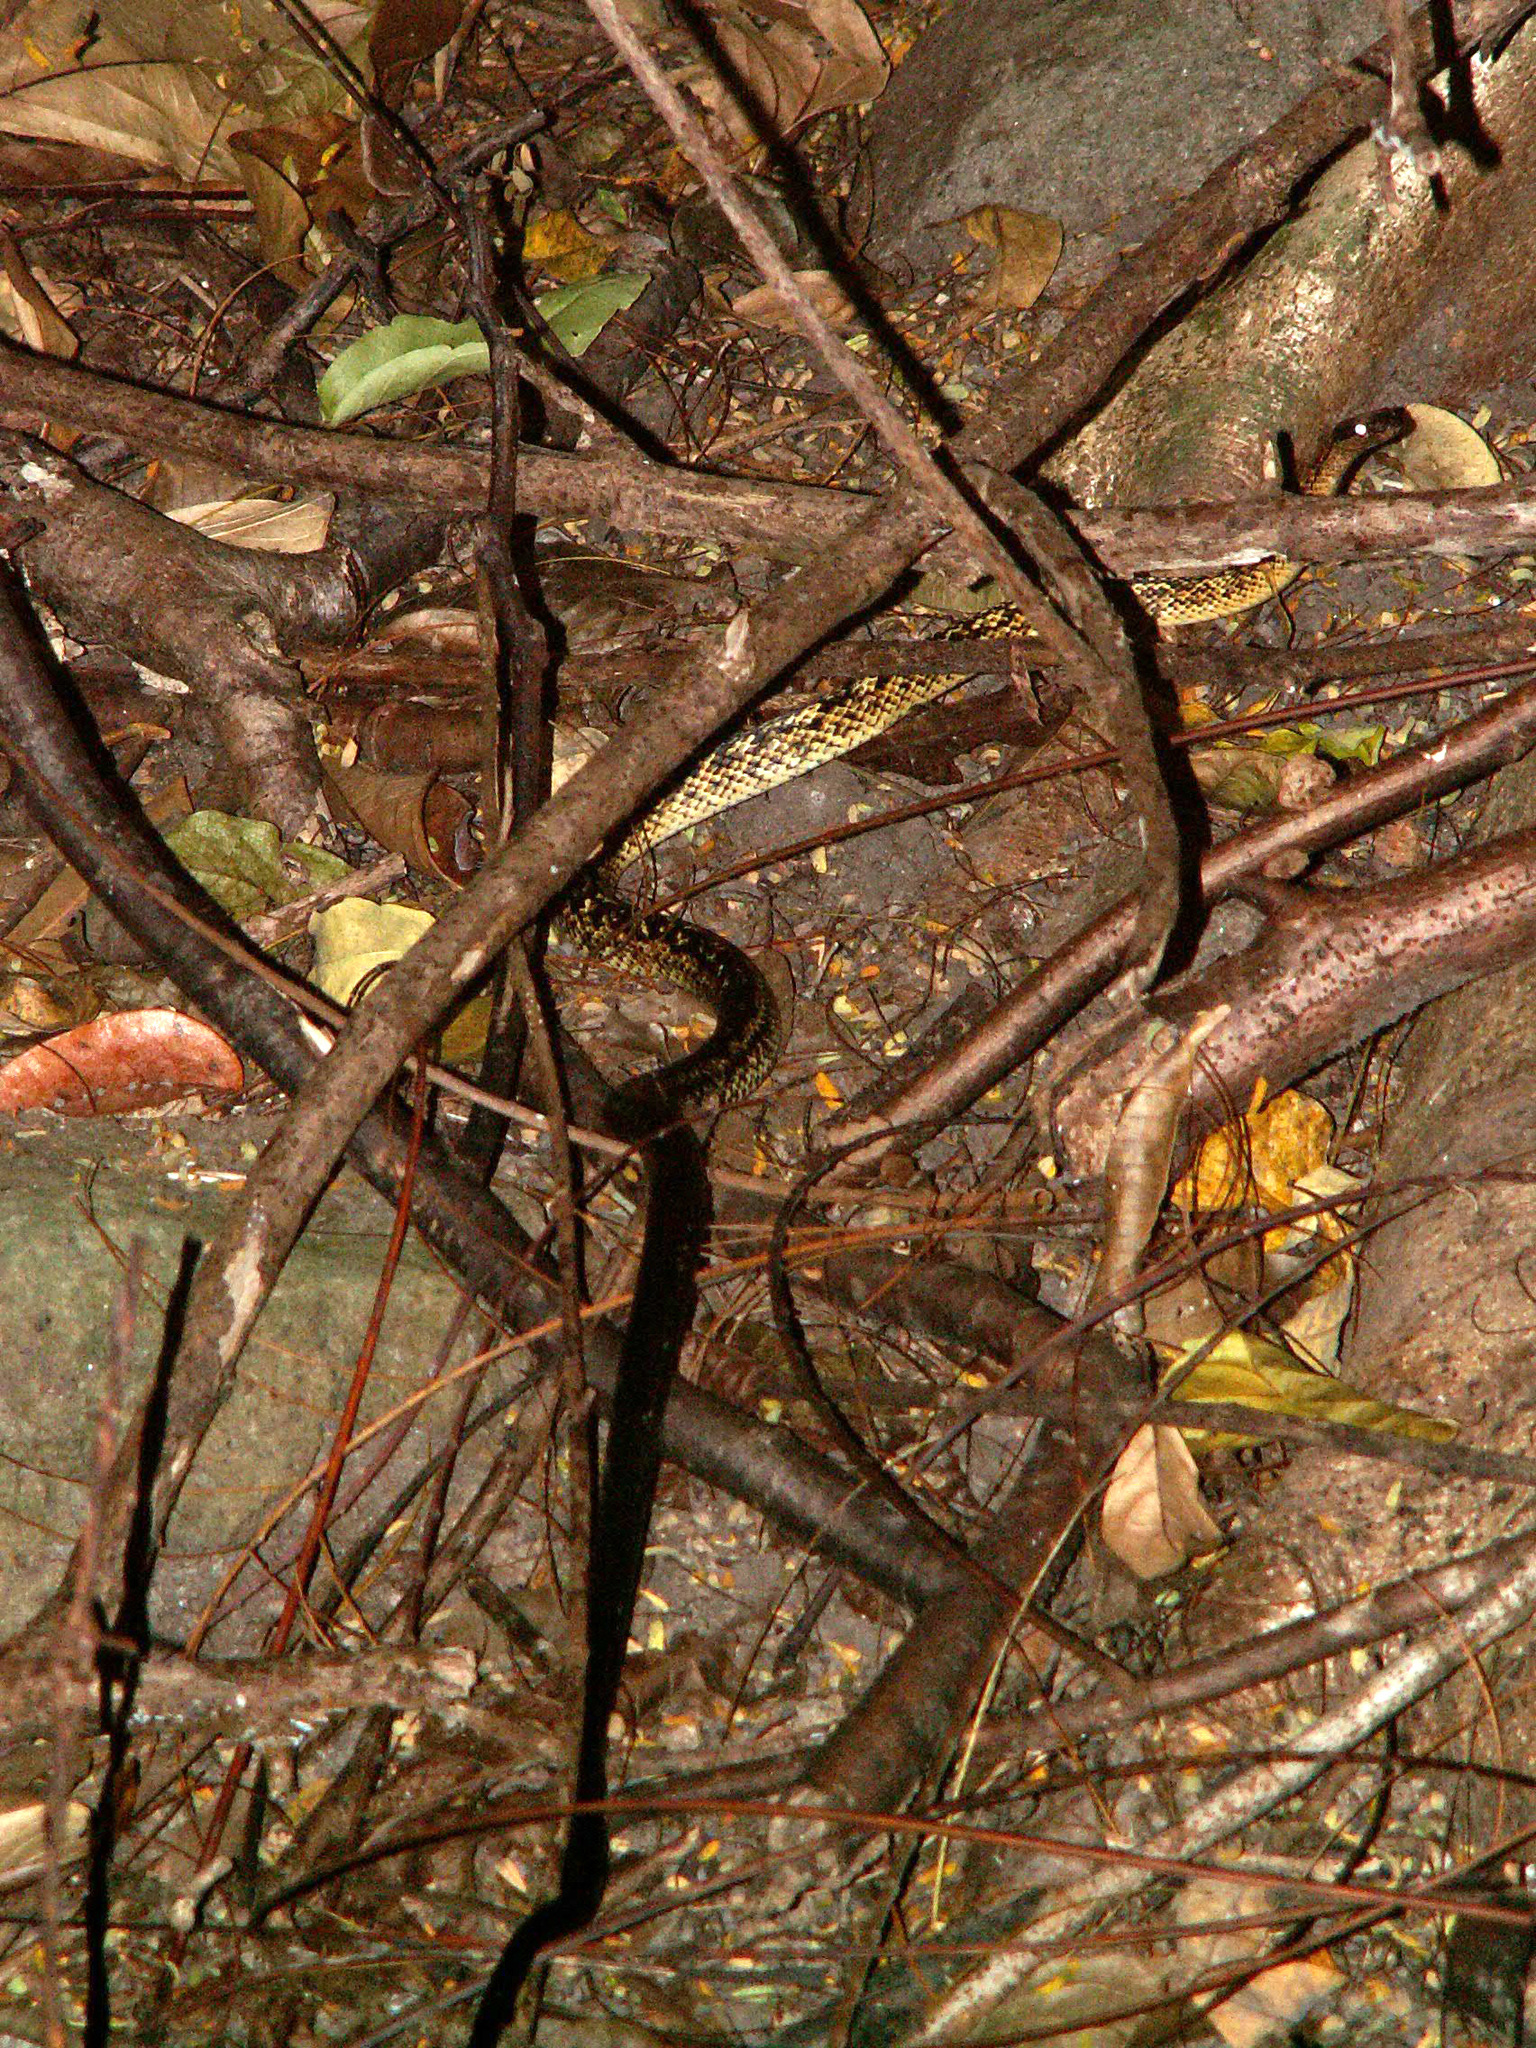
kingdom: Animalia
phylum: Chordata
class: Squamata
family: Colubridae
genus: Alsophis
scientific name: Alsophis danforthi
